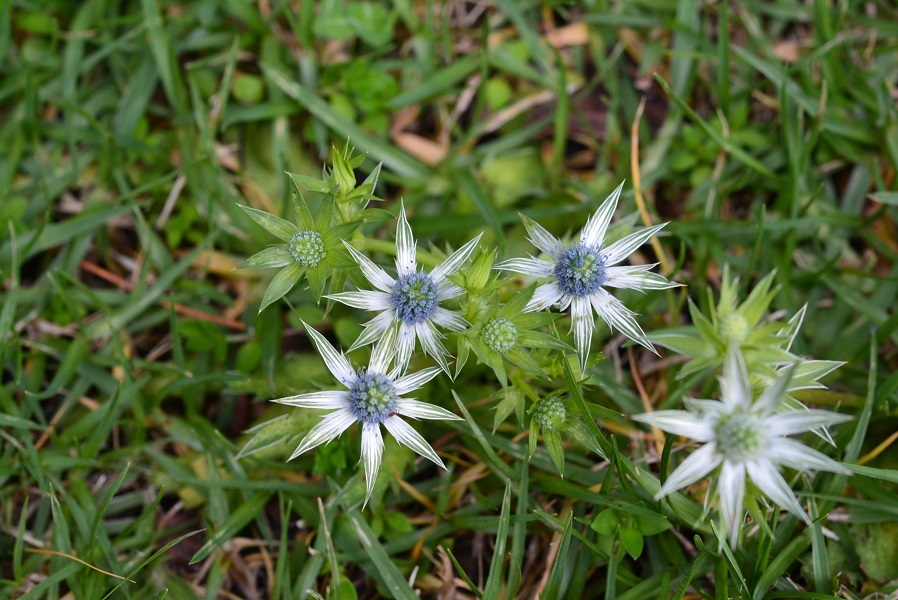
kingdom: Plantae
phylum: Tracheophyta
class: Magnoliopsida
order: Apiales
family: Apiaceae
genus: Eryngium
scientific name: Eryngium carlinae
